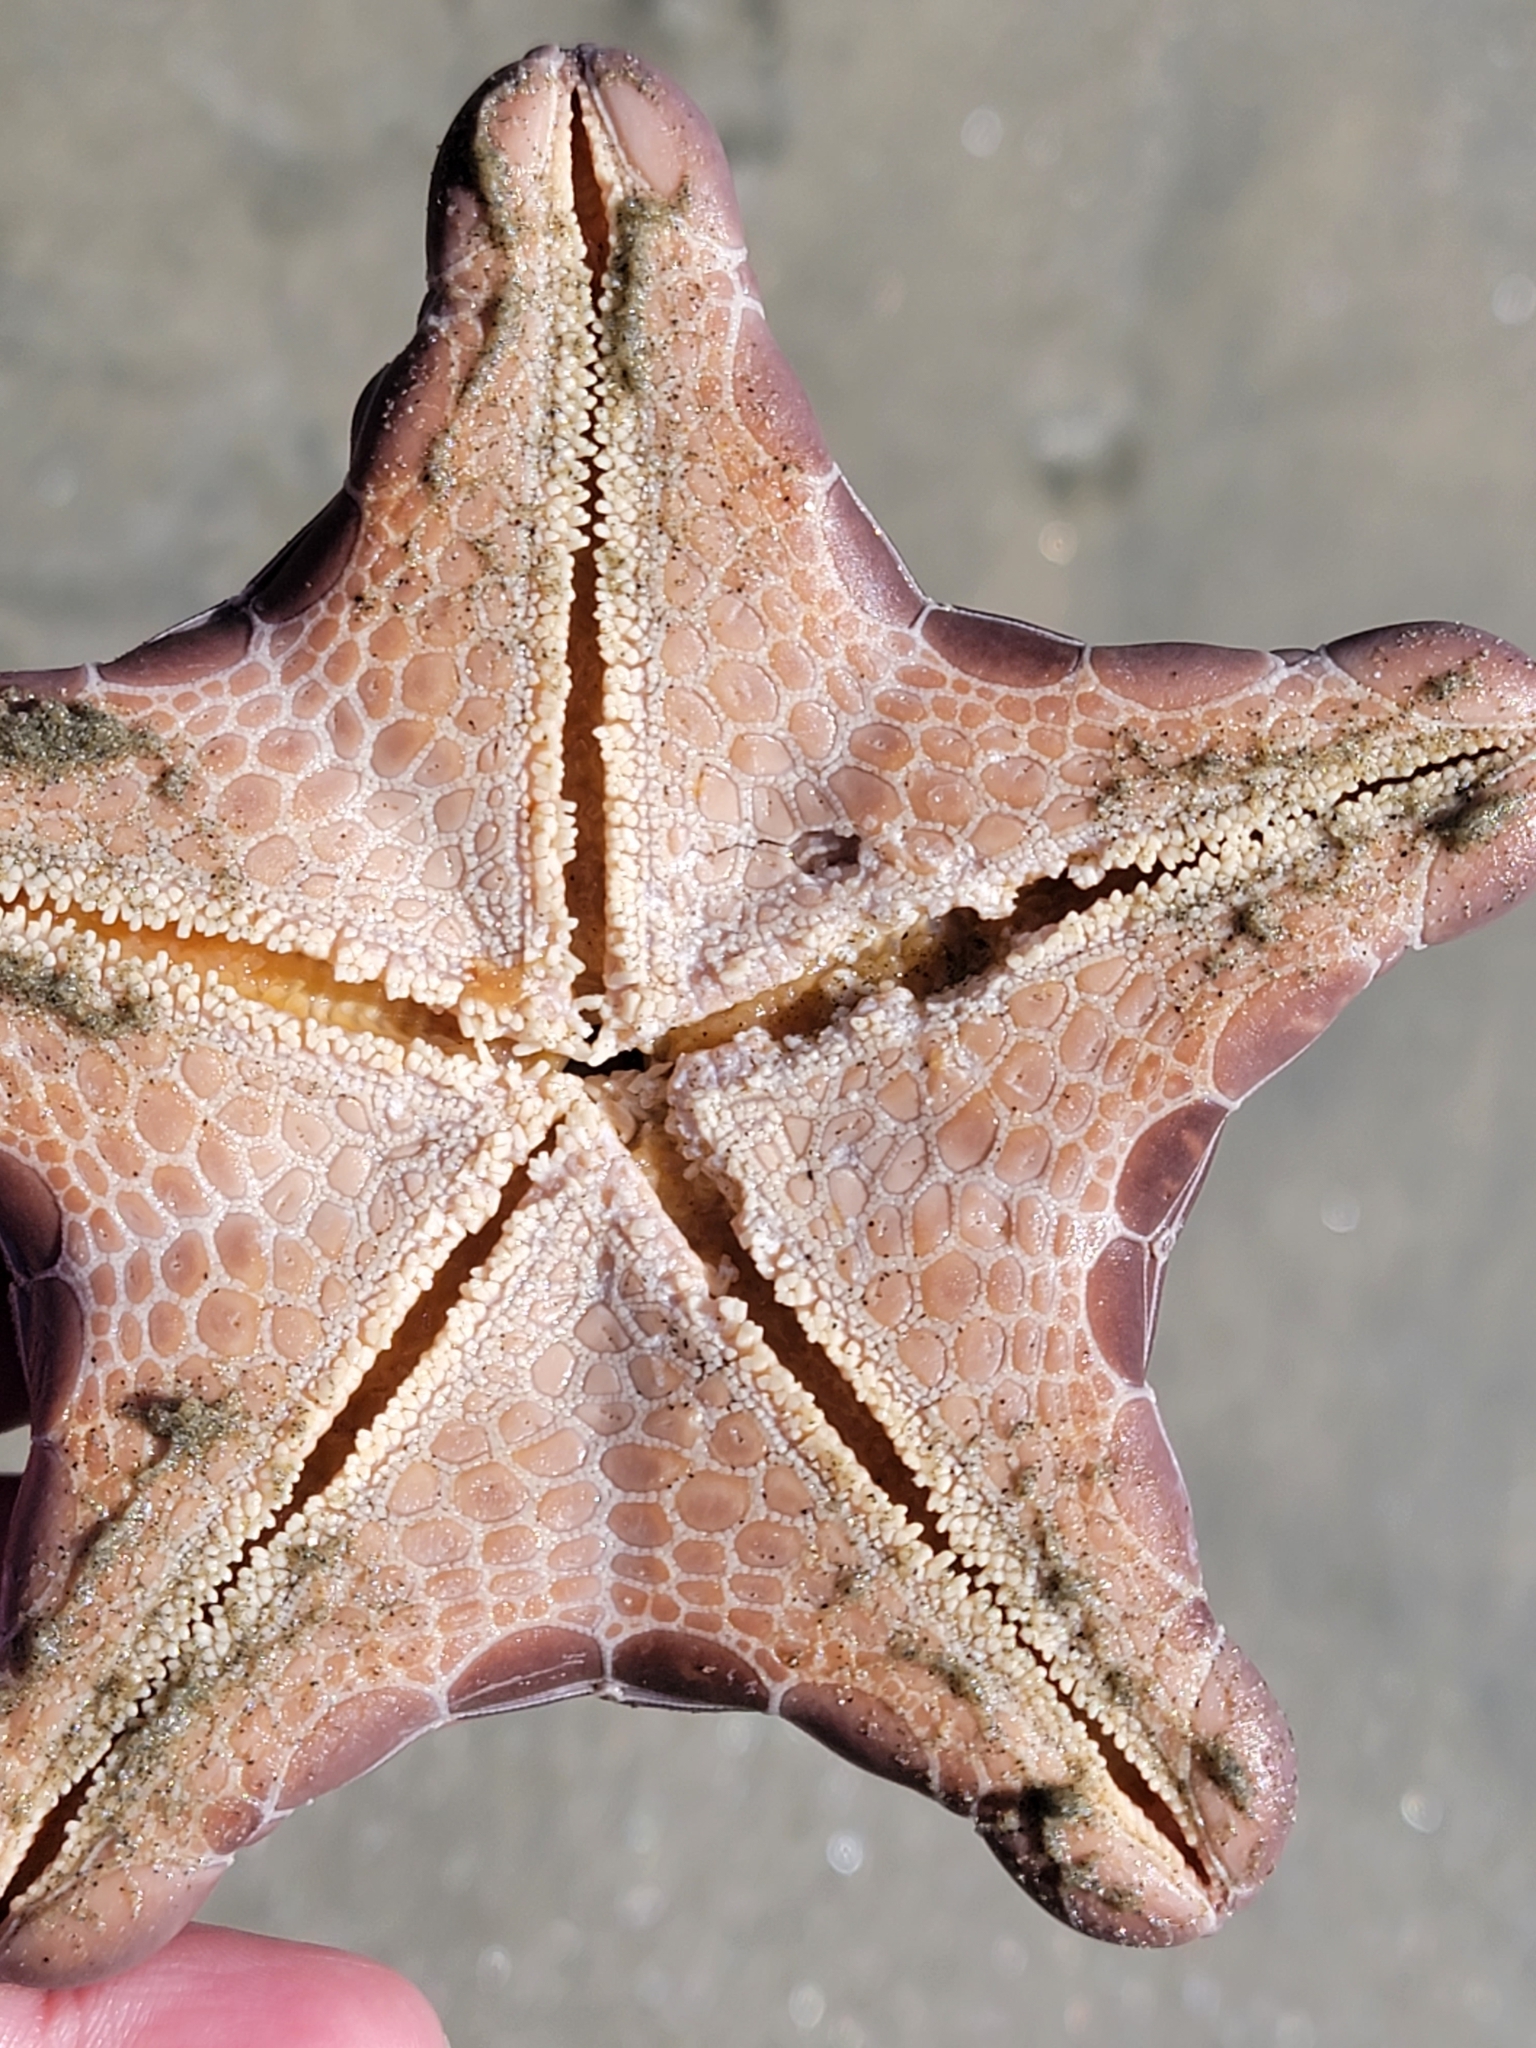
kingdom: Animalia
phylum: Echinodermata
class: Asteroidea
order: Valvatida
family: Goniasteridae
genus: Pentagonaster
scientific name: Pentagonaster pulchellus
